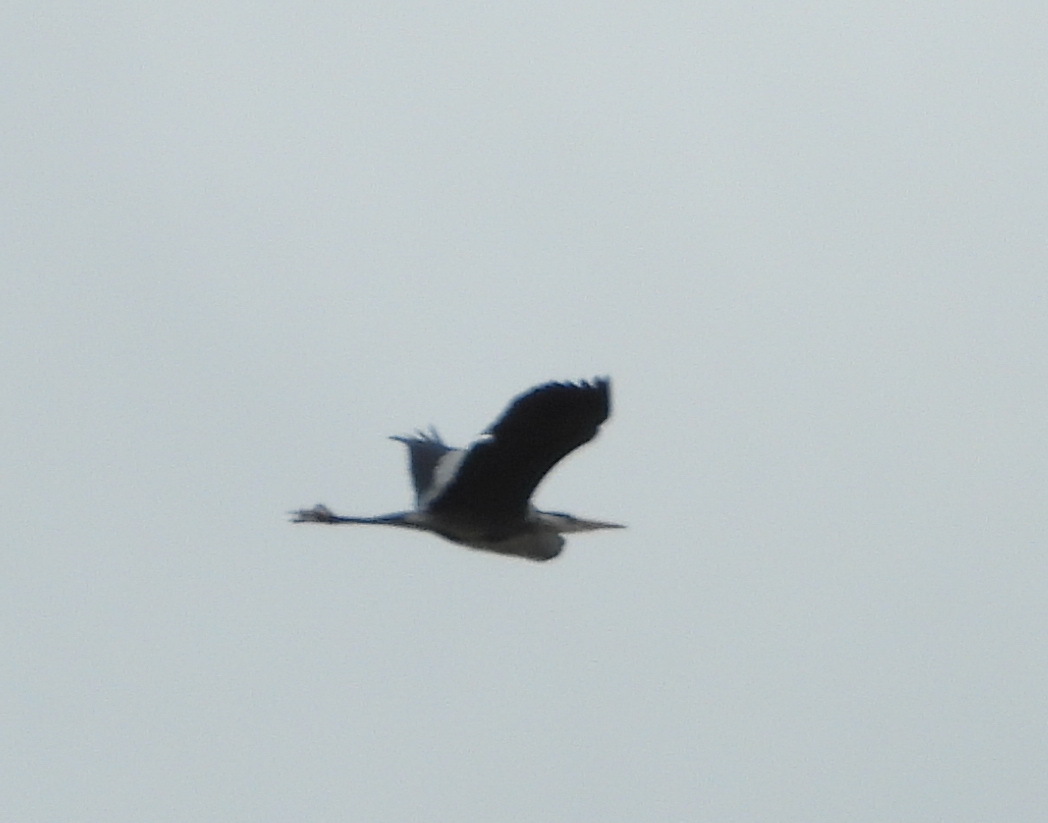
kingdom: Animalia
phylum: Chordata
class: Aves
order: Pelecaniformes
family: Ardeidae
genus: Ardea
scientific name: Ardea cinerea
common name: Grey heron
